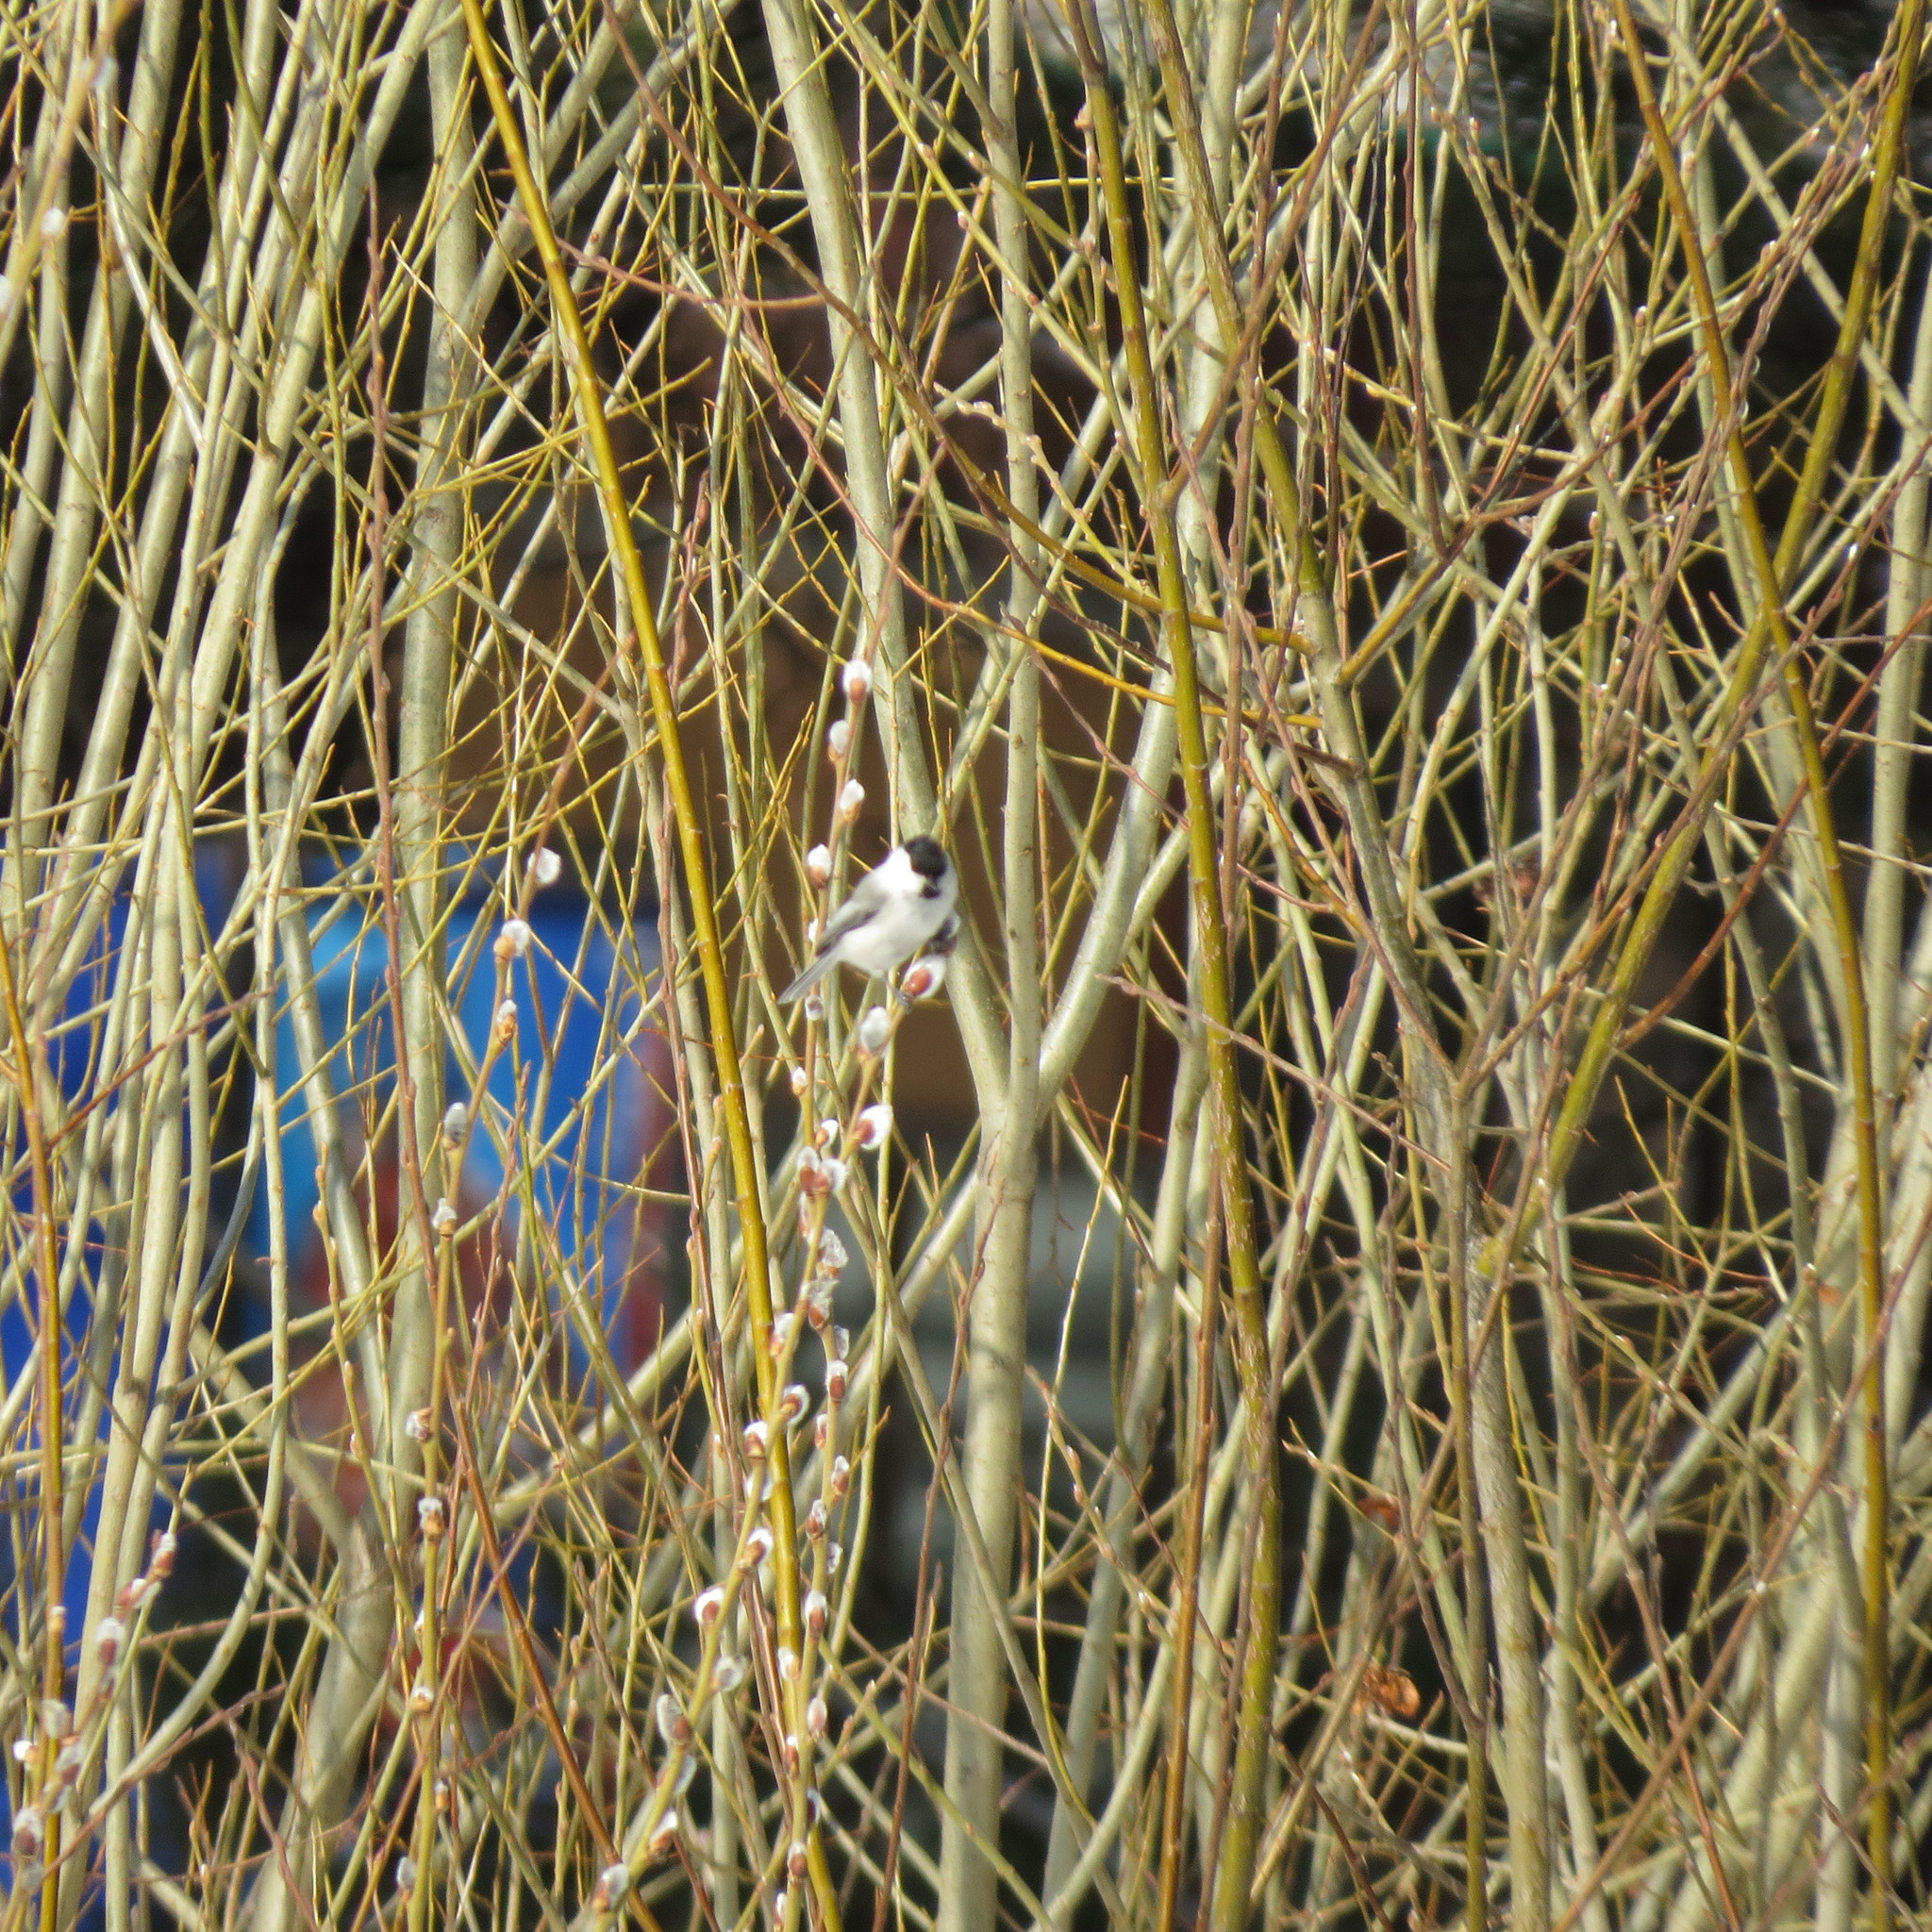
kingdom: Animalia
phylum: Chordata
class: Aves
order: Passeriformes
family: Paridae
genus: Poecile
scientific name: Poecile montanus
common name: Willow tit
